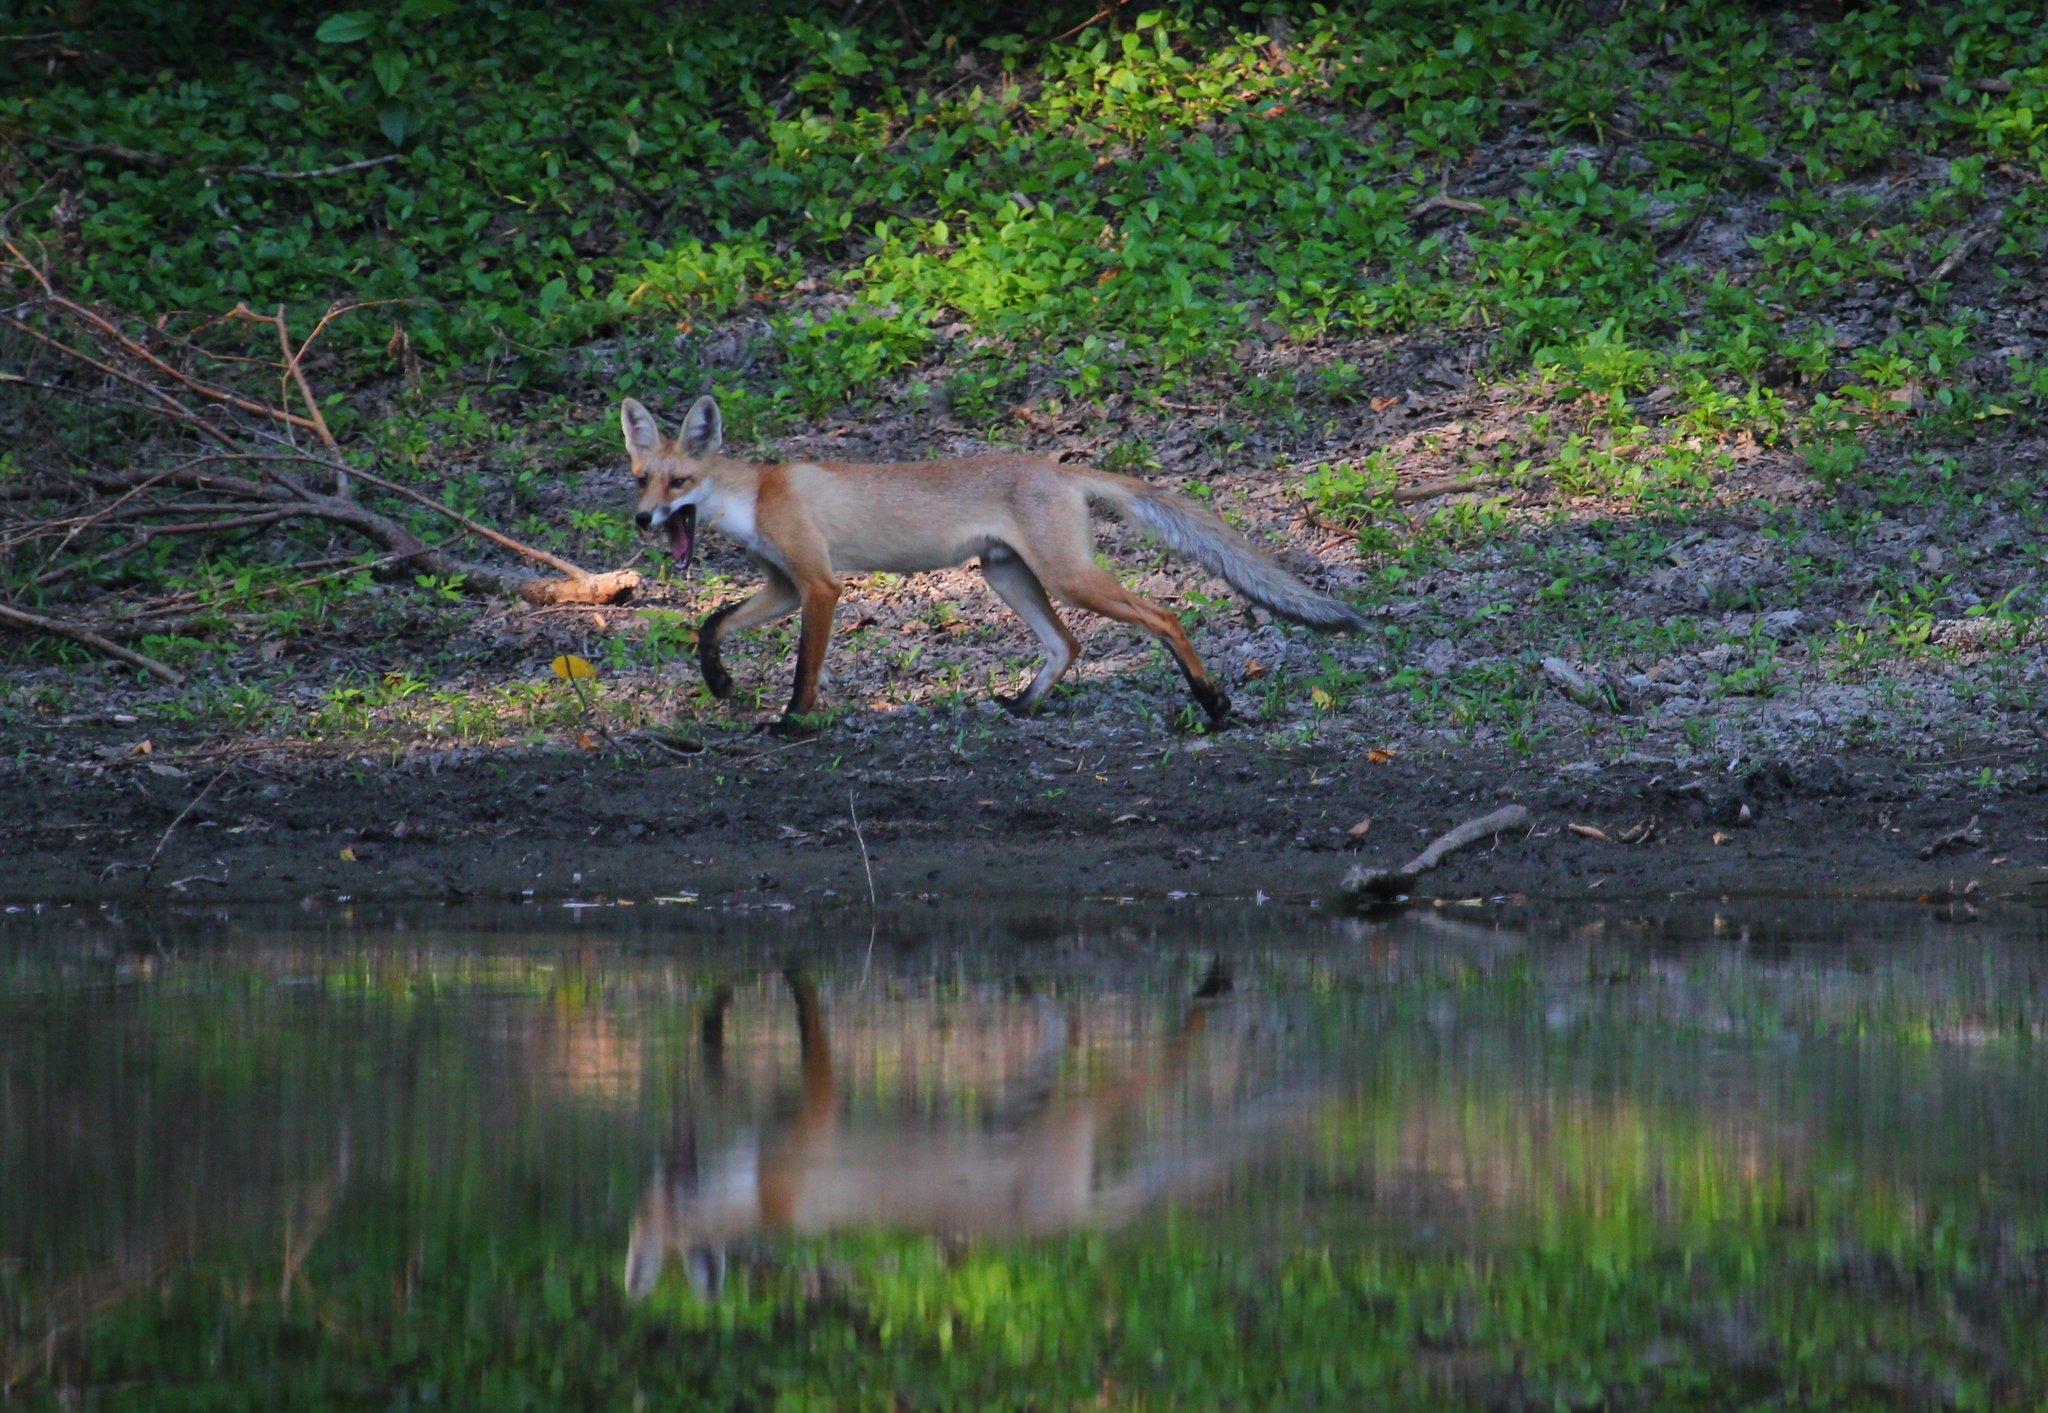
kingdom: Animalia
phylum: Chordata
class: Mammalia
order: Carnivora
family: Canidae
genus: Vulpes
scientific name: Vulpes vulpes
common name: Red fox
